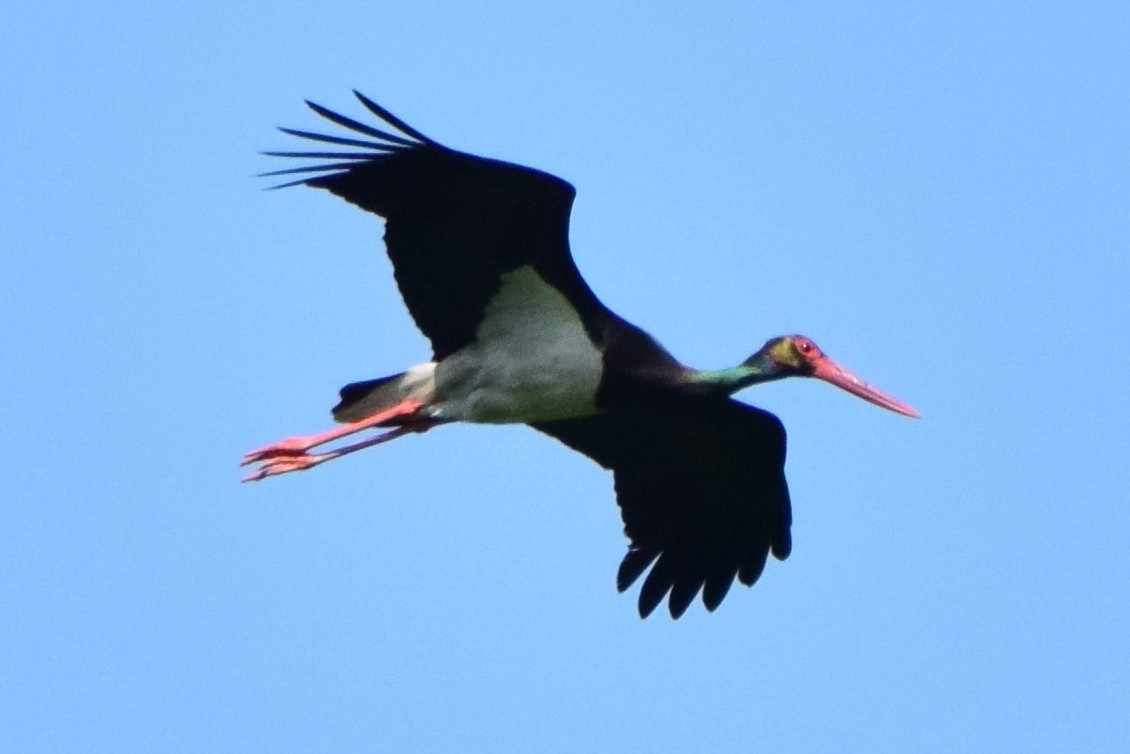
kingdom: Animalia
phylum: Chordata
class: Aves
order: Ciconiiformes
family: Ciconiidae
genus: Ciconia
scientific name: Ciconia nigra
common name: Black stork
